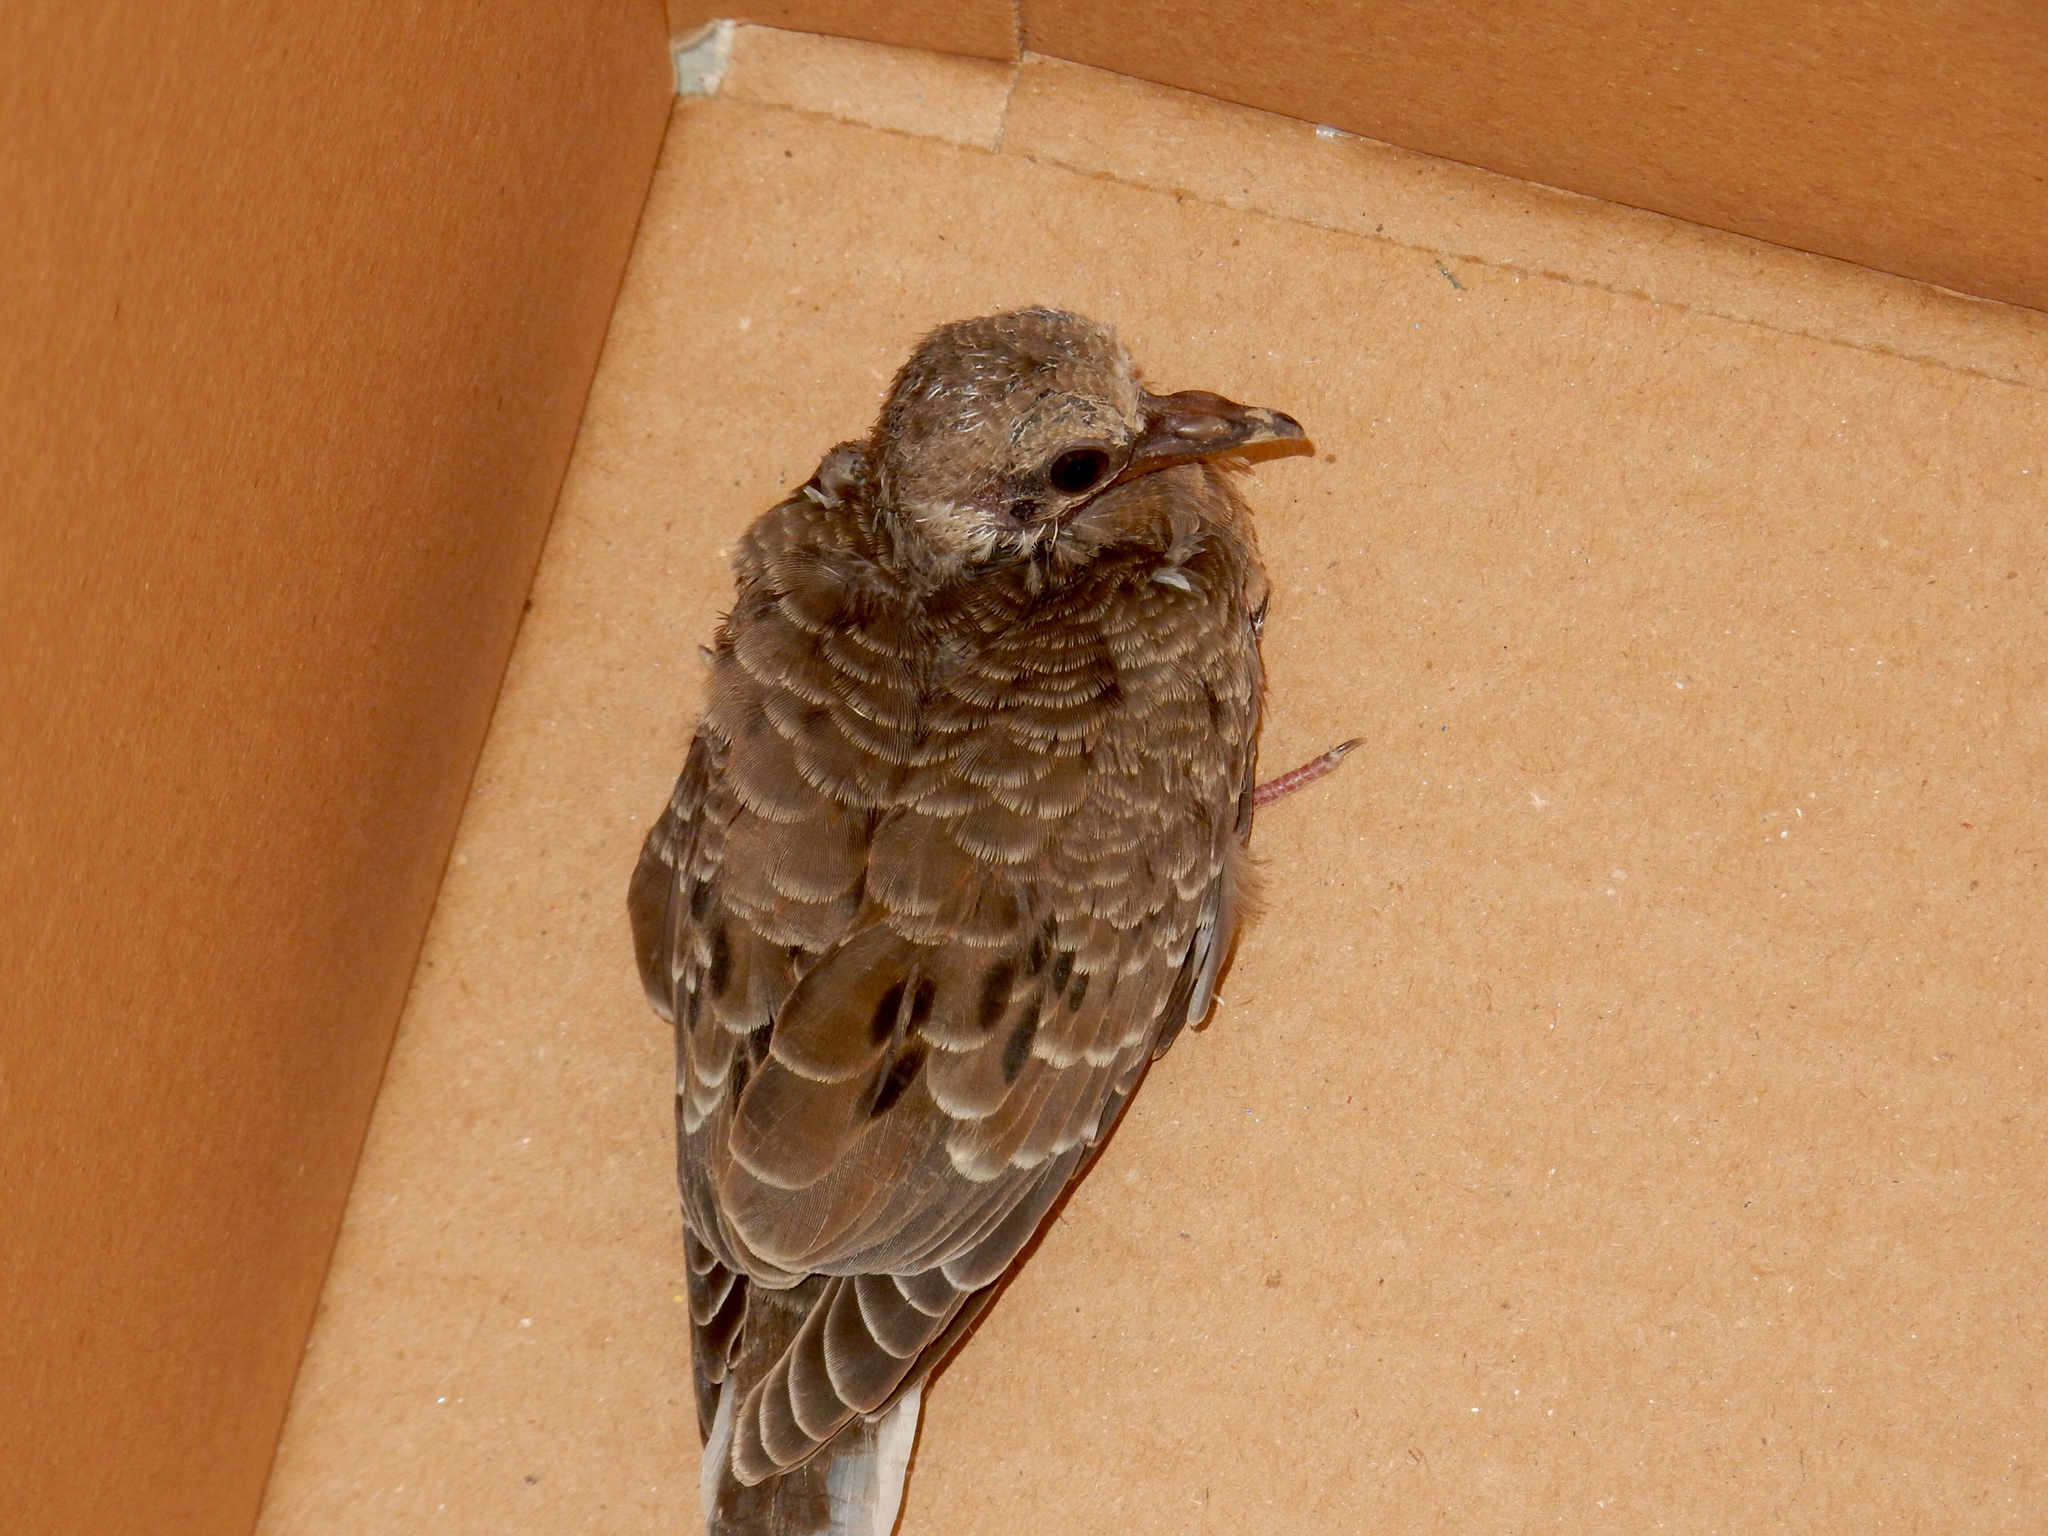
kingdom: Animalia
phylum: Chordata
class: Aves
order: Columbiformes
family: Columbidae
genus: Zenaida
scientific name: Zenaida macroura
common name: Mourning dove
